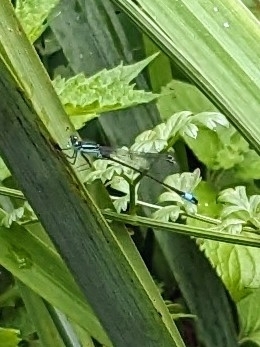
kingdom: Animalia
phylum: Arthropoda
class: Insecta
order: Odonata
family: Coenagrionidae
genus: Ischnura
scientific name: Ischnura elegans
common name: Blue-tailed damselfly
